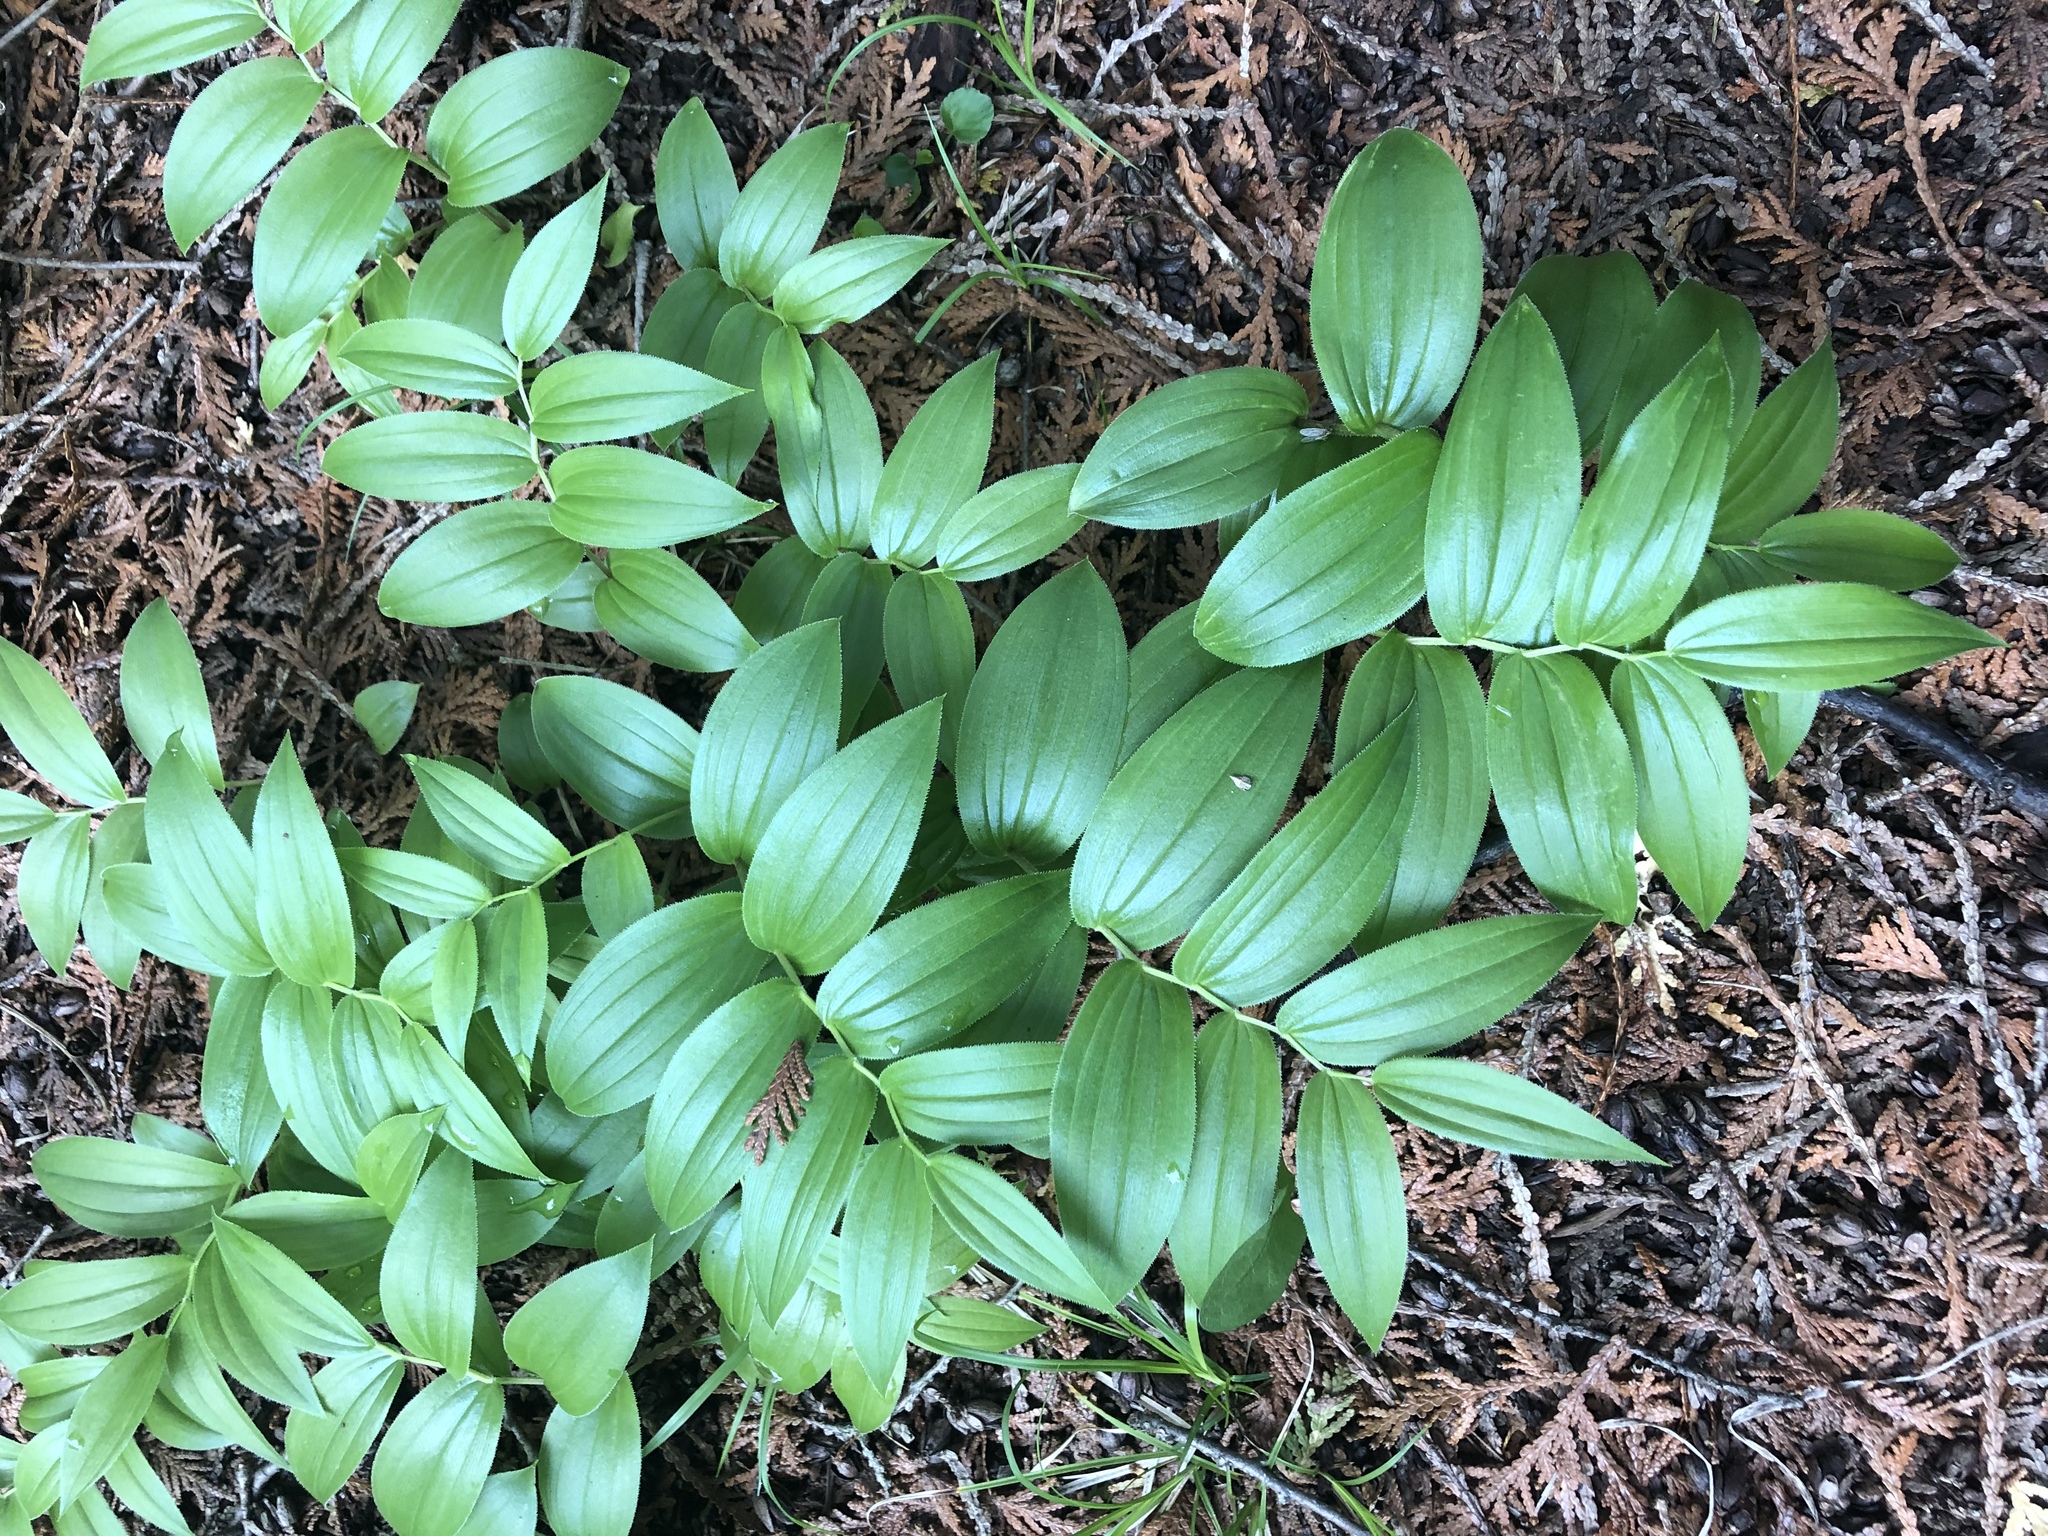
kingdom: Plantae
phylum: Tracheophyta
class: Liliopsida
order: Liliales
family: Liliaceae
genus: Streptopus
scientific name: Streptopus lanceolatus
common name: Rose mandarin
